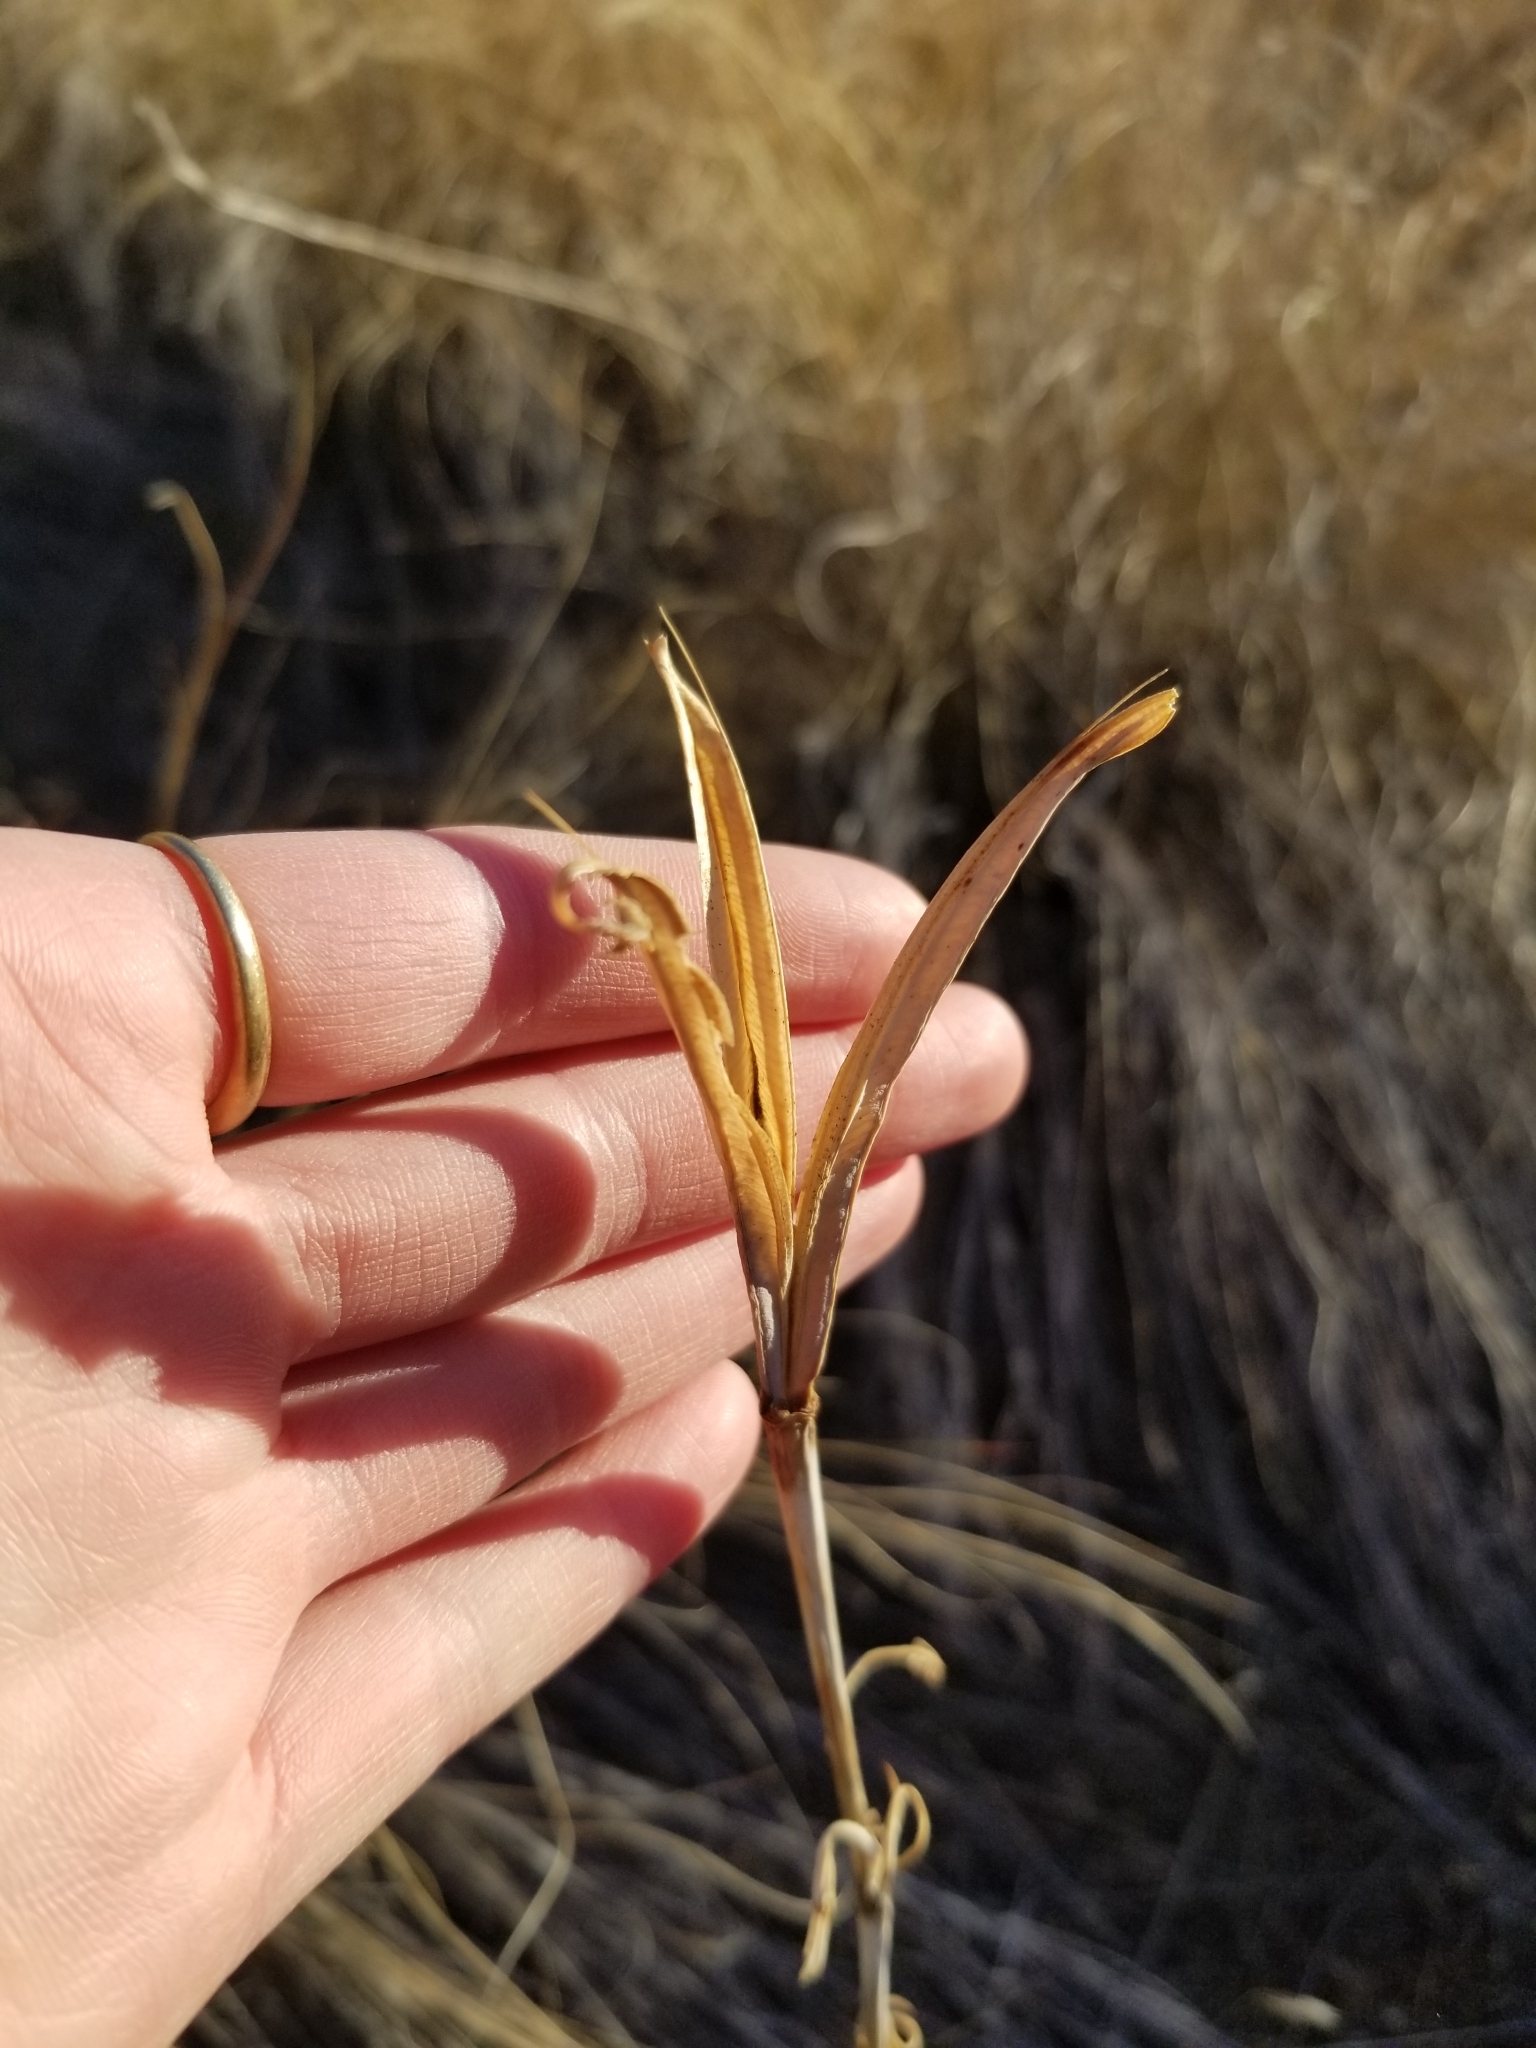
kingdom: Plantae
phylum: Tracheophyta
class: Liliopsida
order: Liliales
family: Liliaceae
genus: Calochortus
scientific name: Calochortus macrocarpus
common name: Green-band mariposa lily
